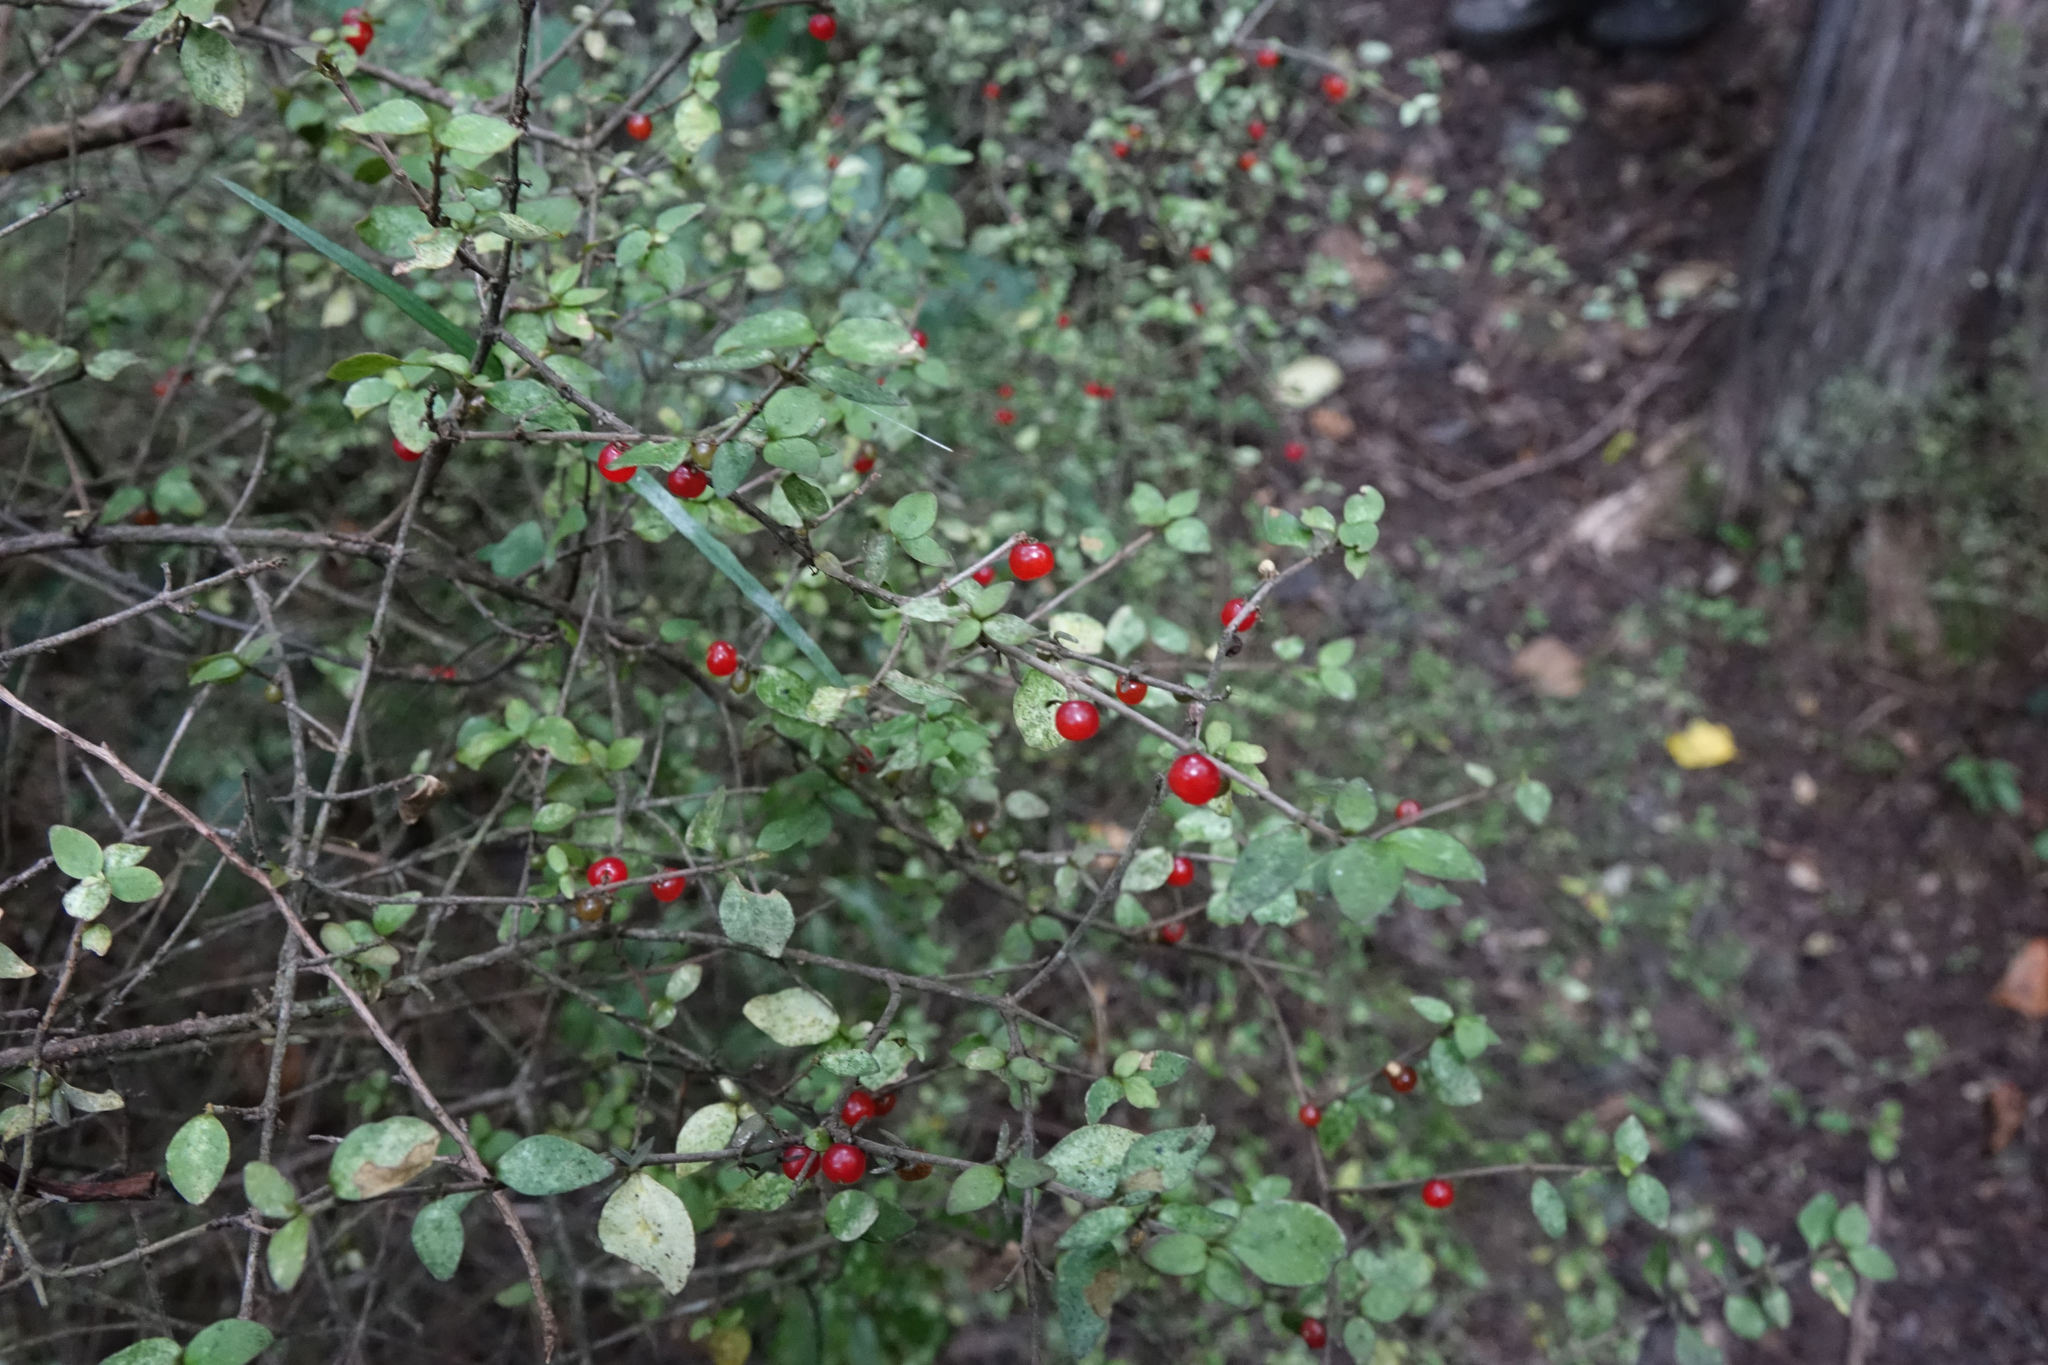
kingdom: Plantae
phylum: Tracheophyta
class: Magnoliopsida
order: Gentianales
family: Rubiaceae
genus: Coprosma
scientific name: Coprosma rhamnoides
